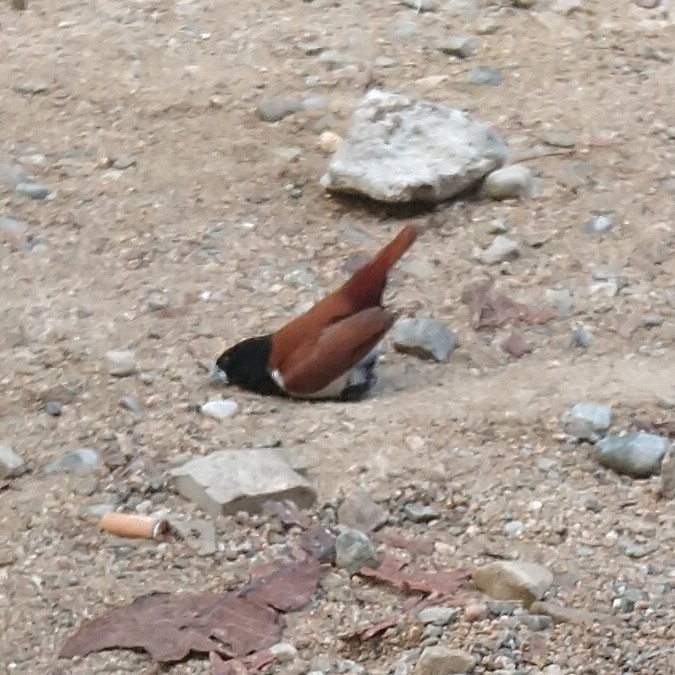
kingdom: Animalia
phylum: Chordata
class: Aves
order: Passeriformes
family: Estrildidae
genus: Lonchura
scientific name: Lonchura malacca
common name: Tricolored munia
